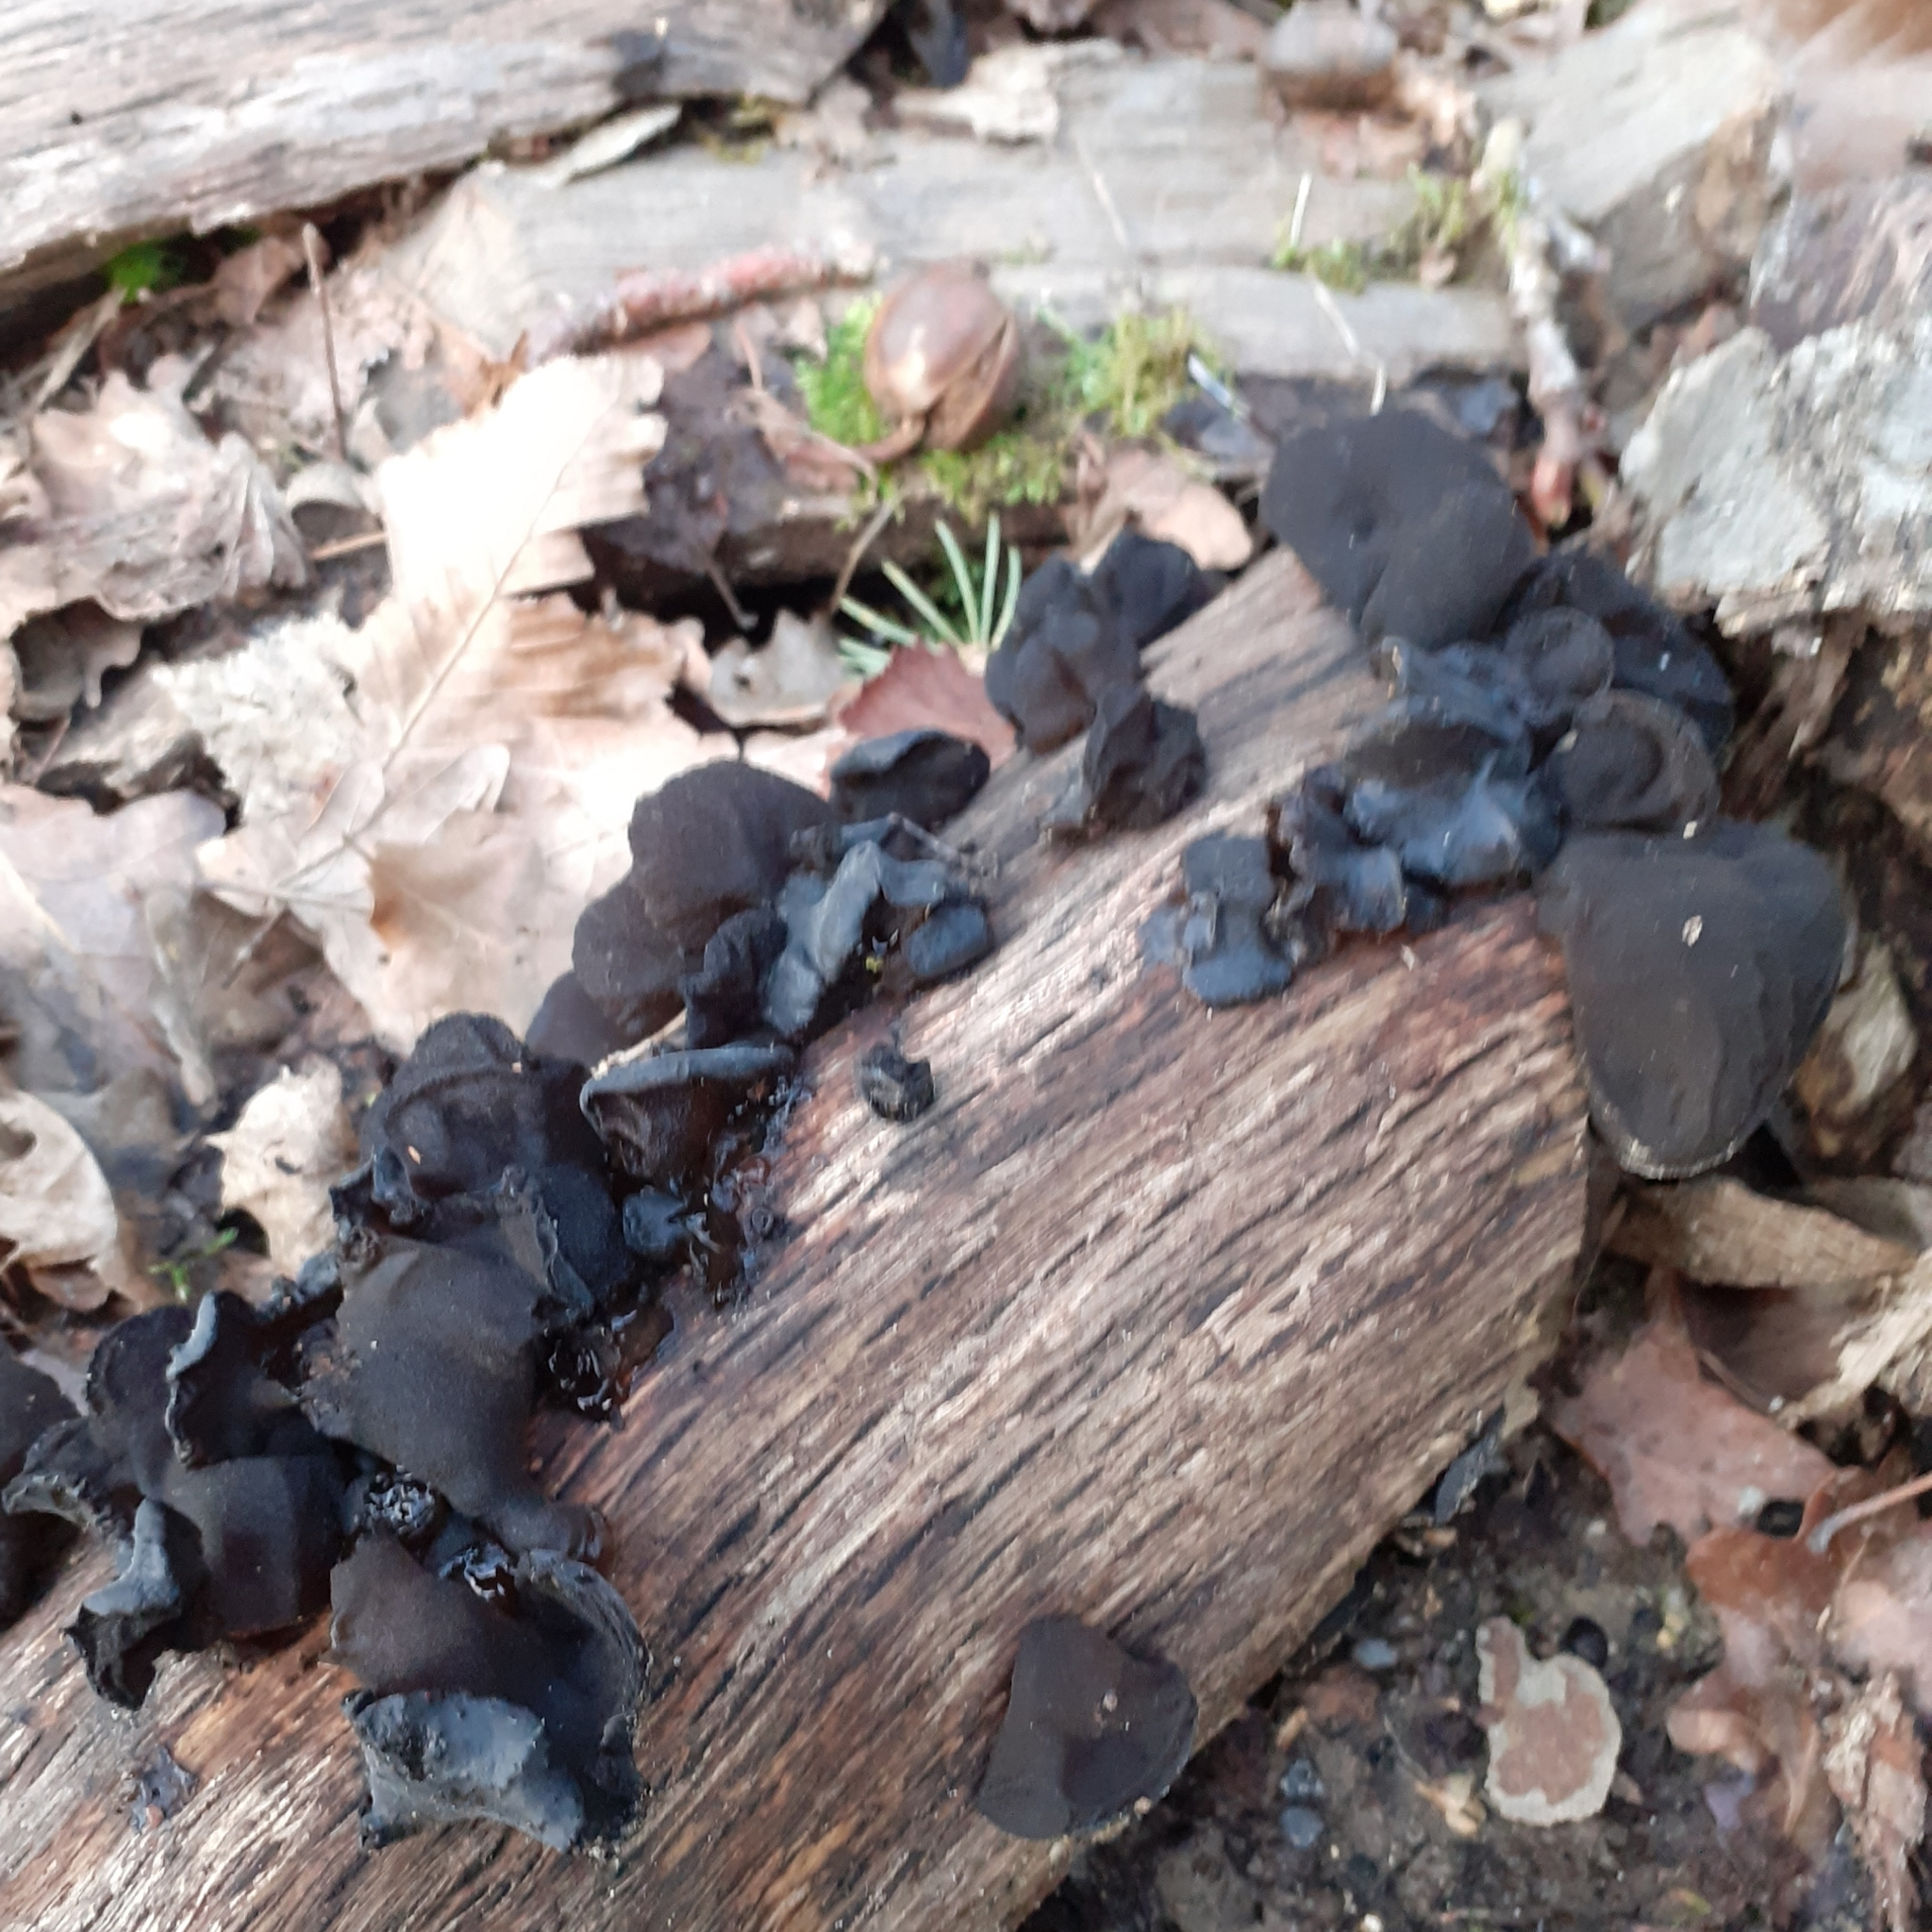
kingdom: Fungi
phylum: Basidiomycota
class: Agaricomycetes
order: Auriculariales
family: Auriculariaceae
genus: Auricularia
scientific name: Auricularia auricula-judae
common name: Jelly ear
